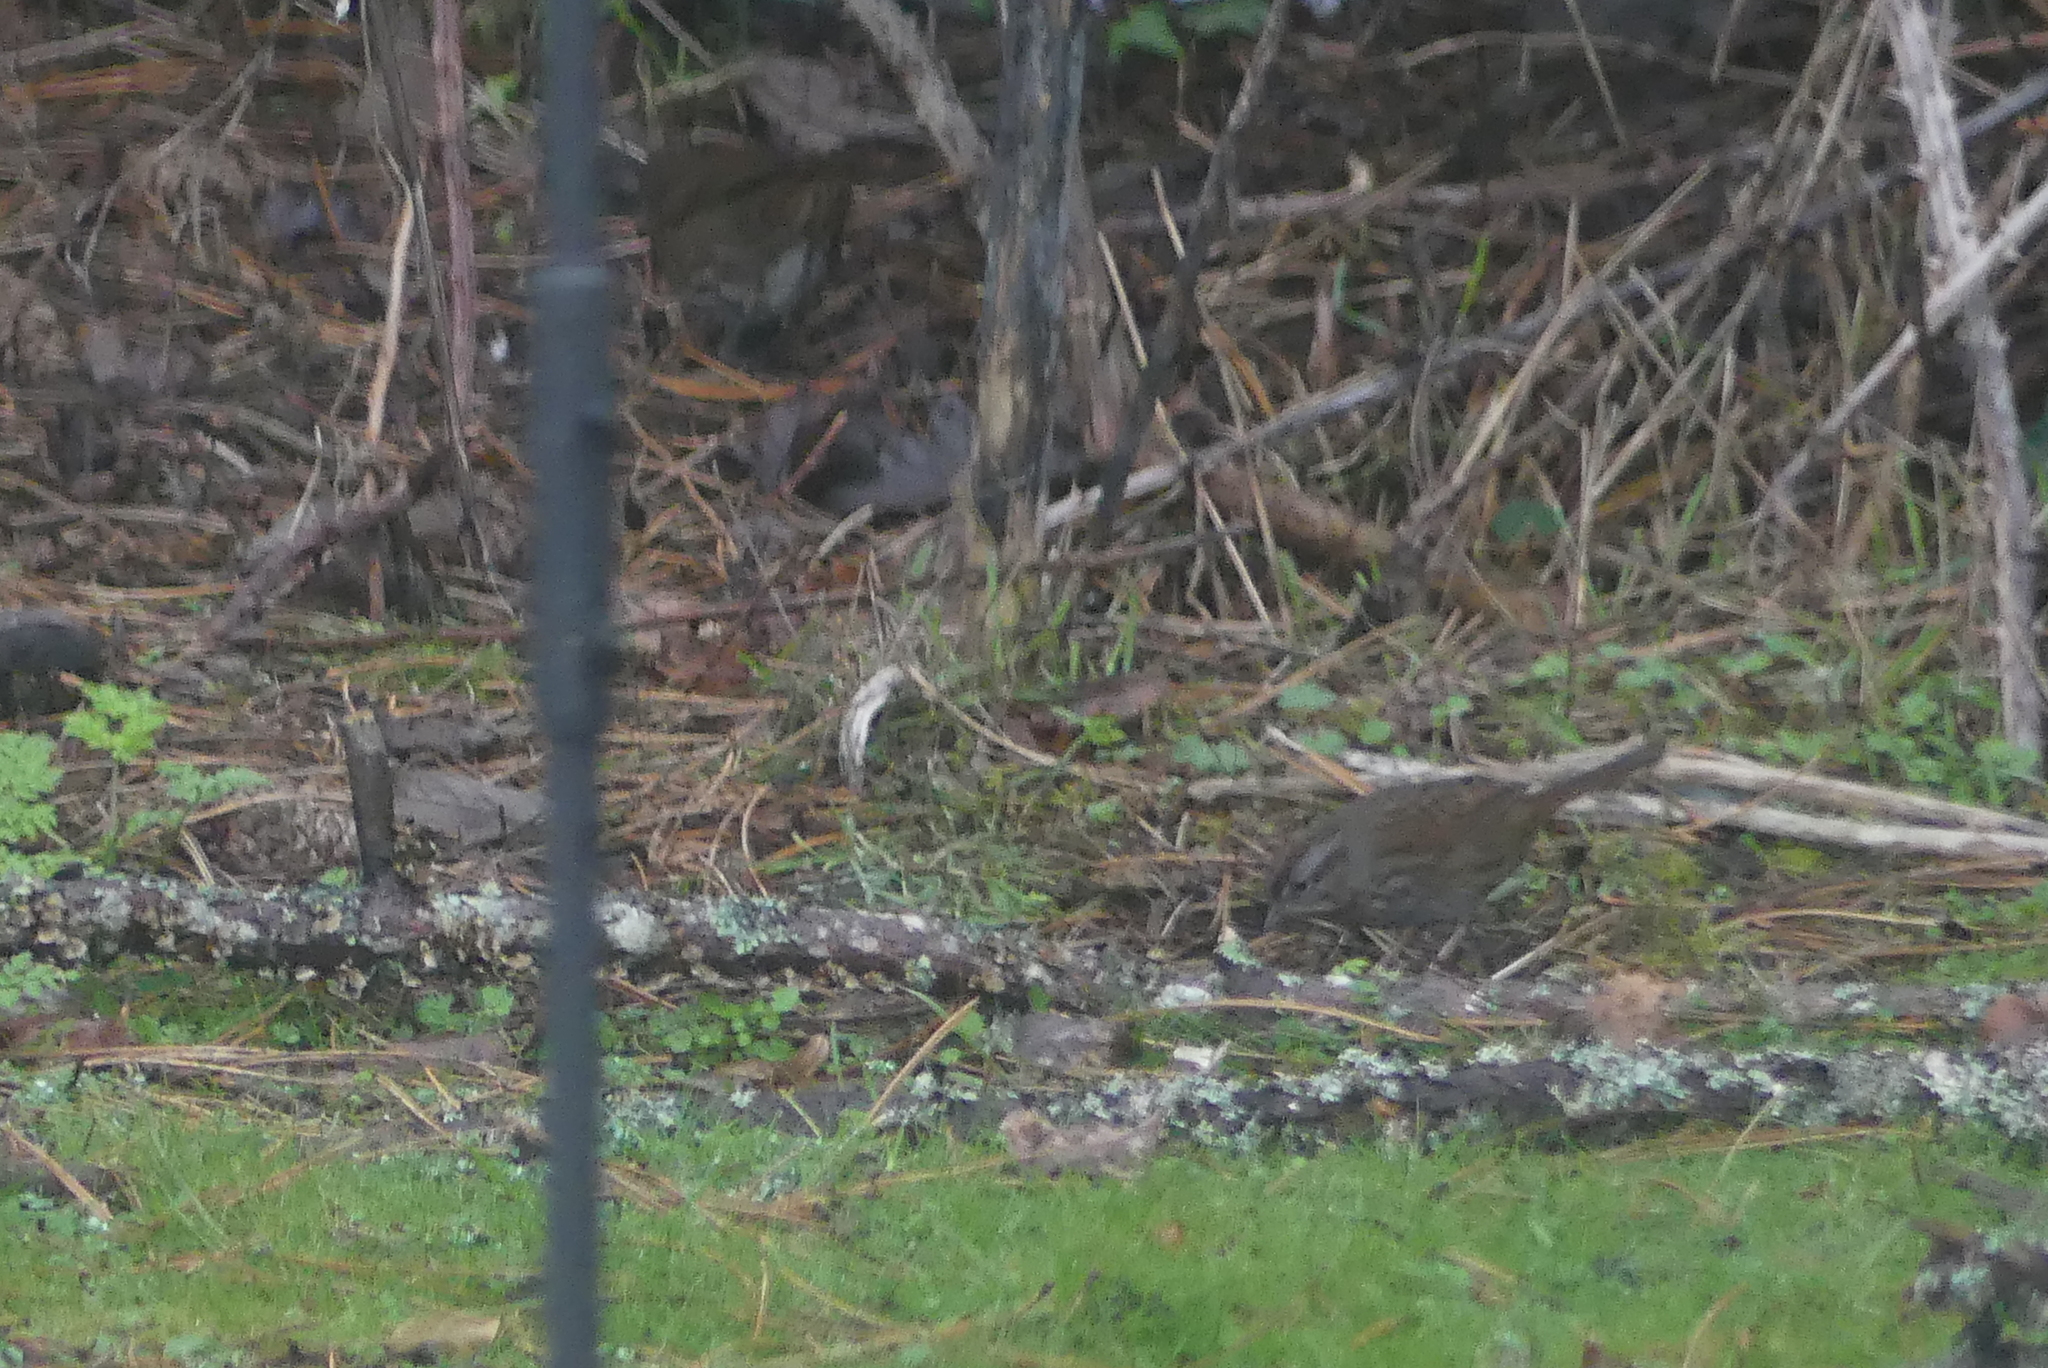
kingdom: Animalia
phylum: Chordata
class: Aves
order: Passeriformes
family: Passerellidae
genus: Melospiza
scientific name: Melospiza melodia
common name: Song sparrow
